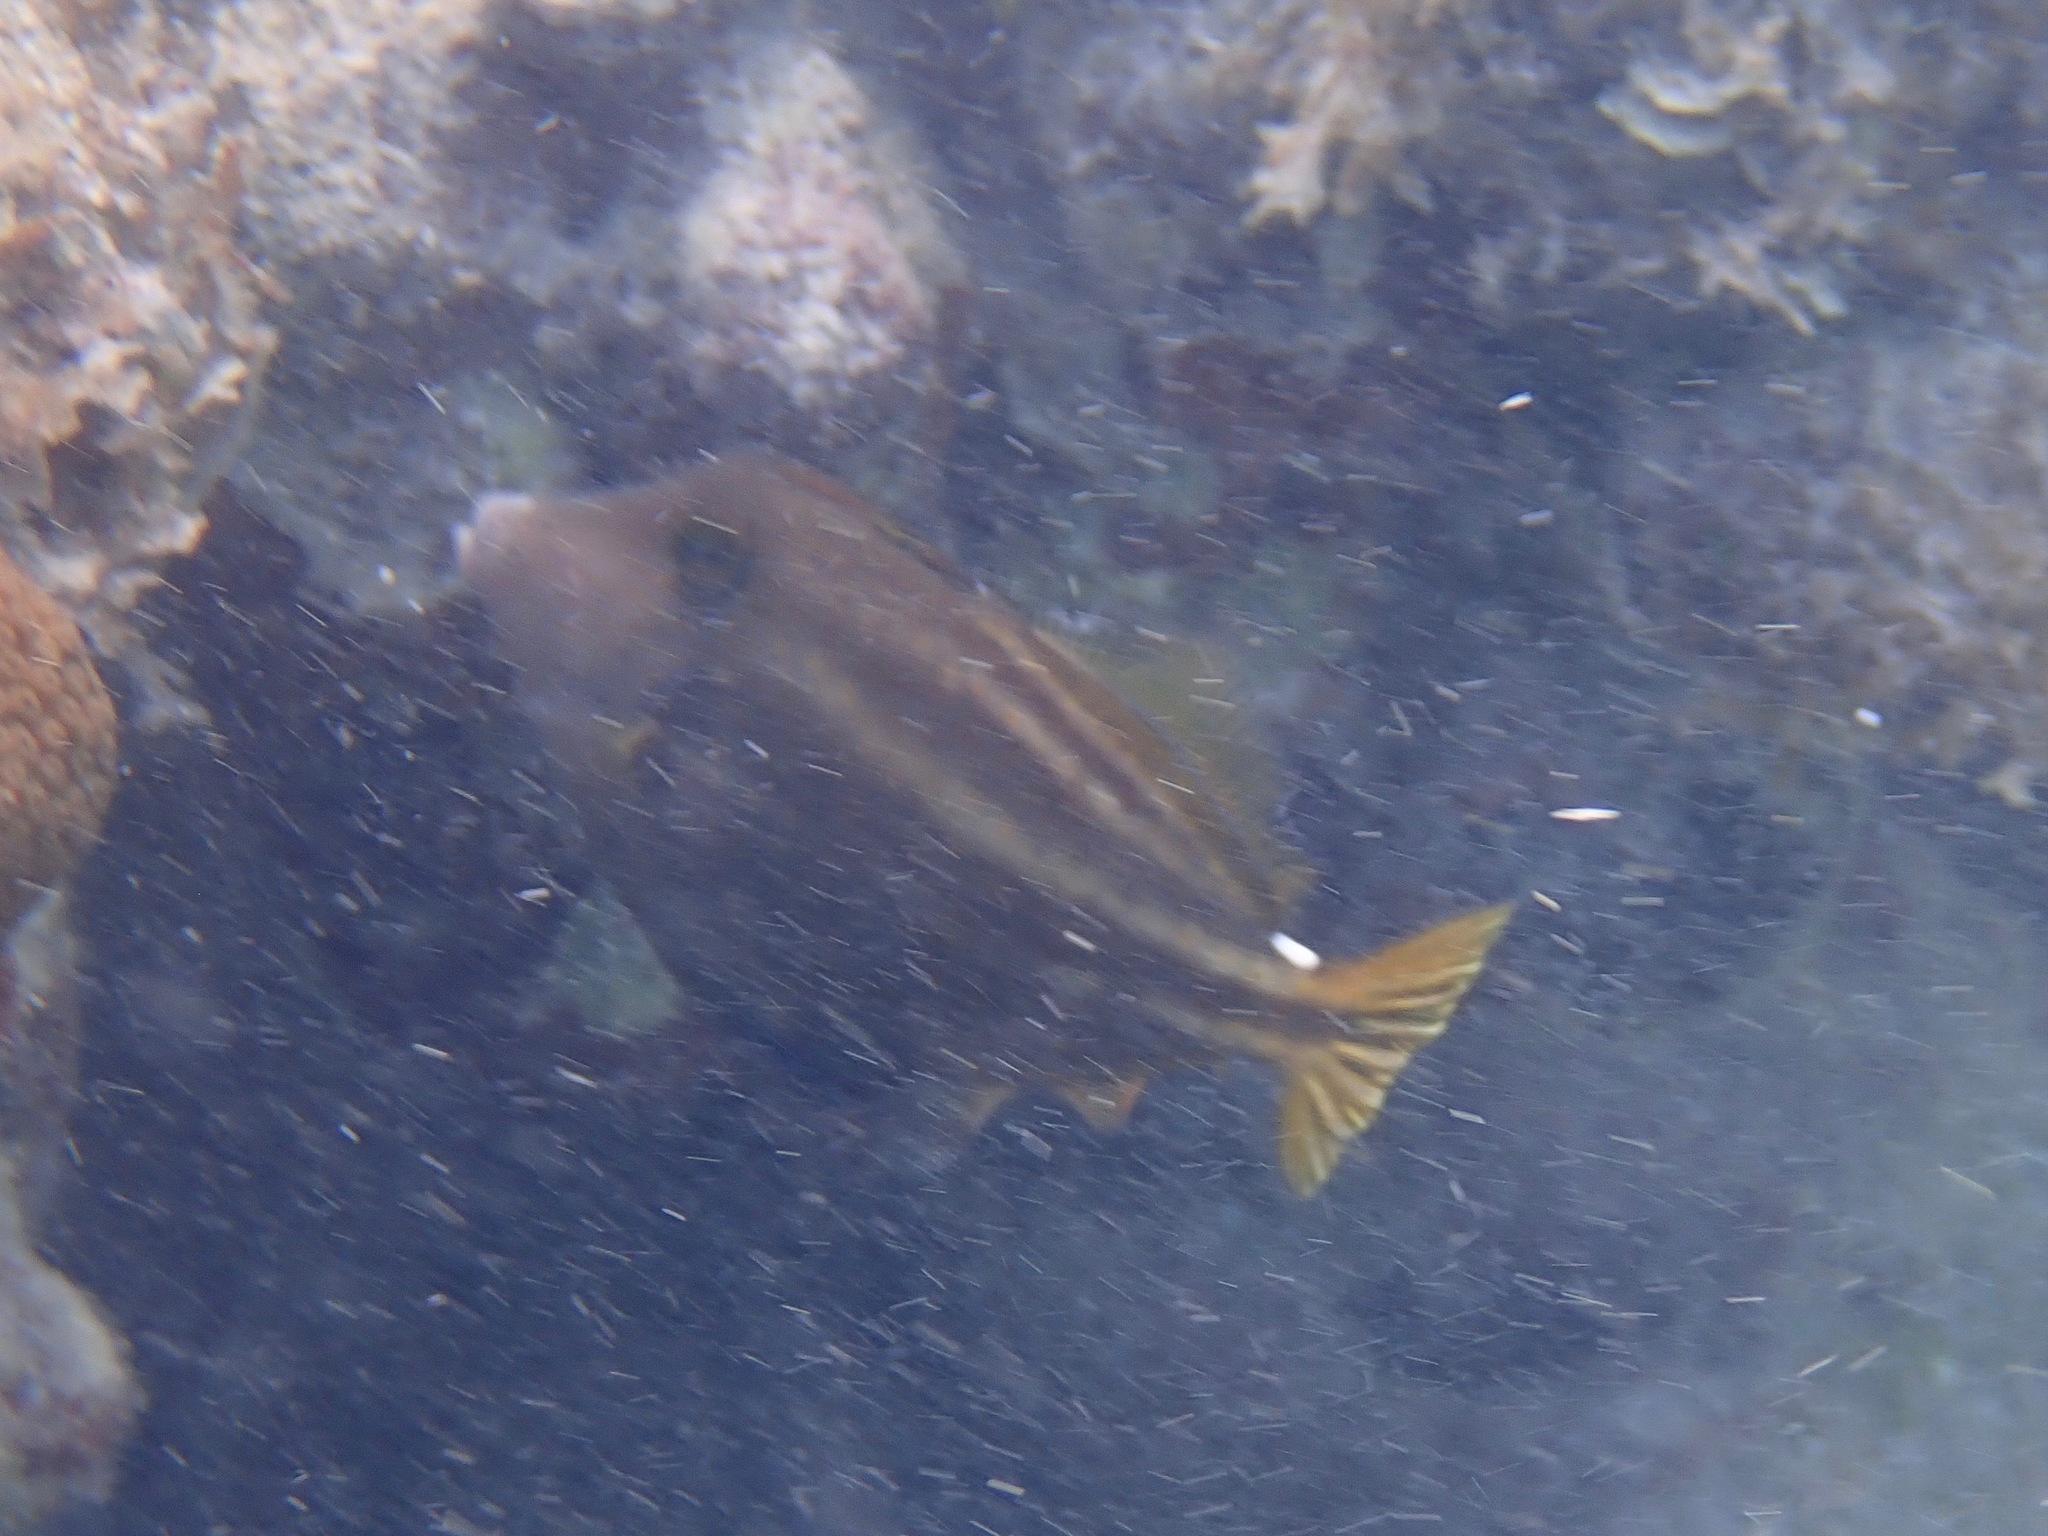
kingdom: Animalia
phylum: Chordata
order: Tetraodontiformes
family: Monacanthidae
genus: Cantherhines
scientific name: Cantherhines pullus
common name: Orangespotted filefish
